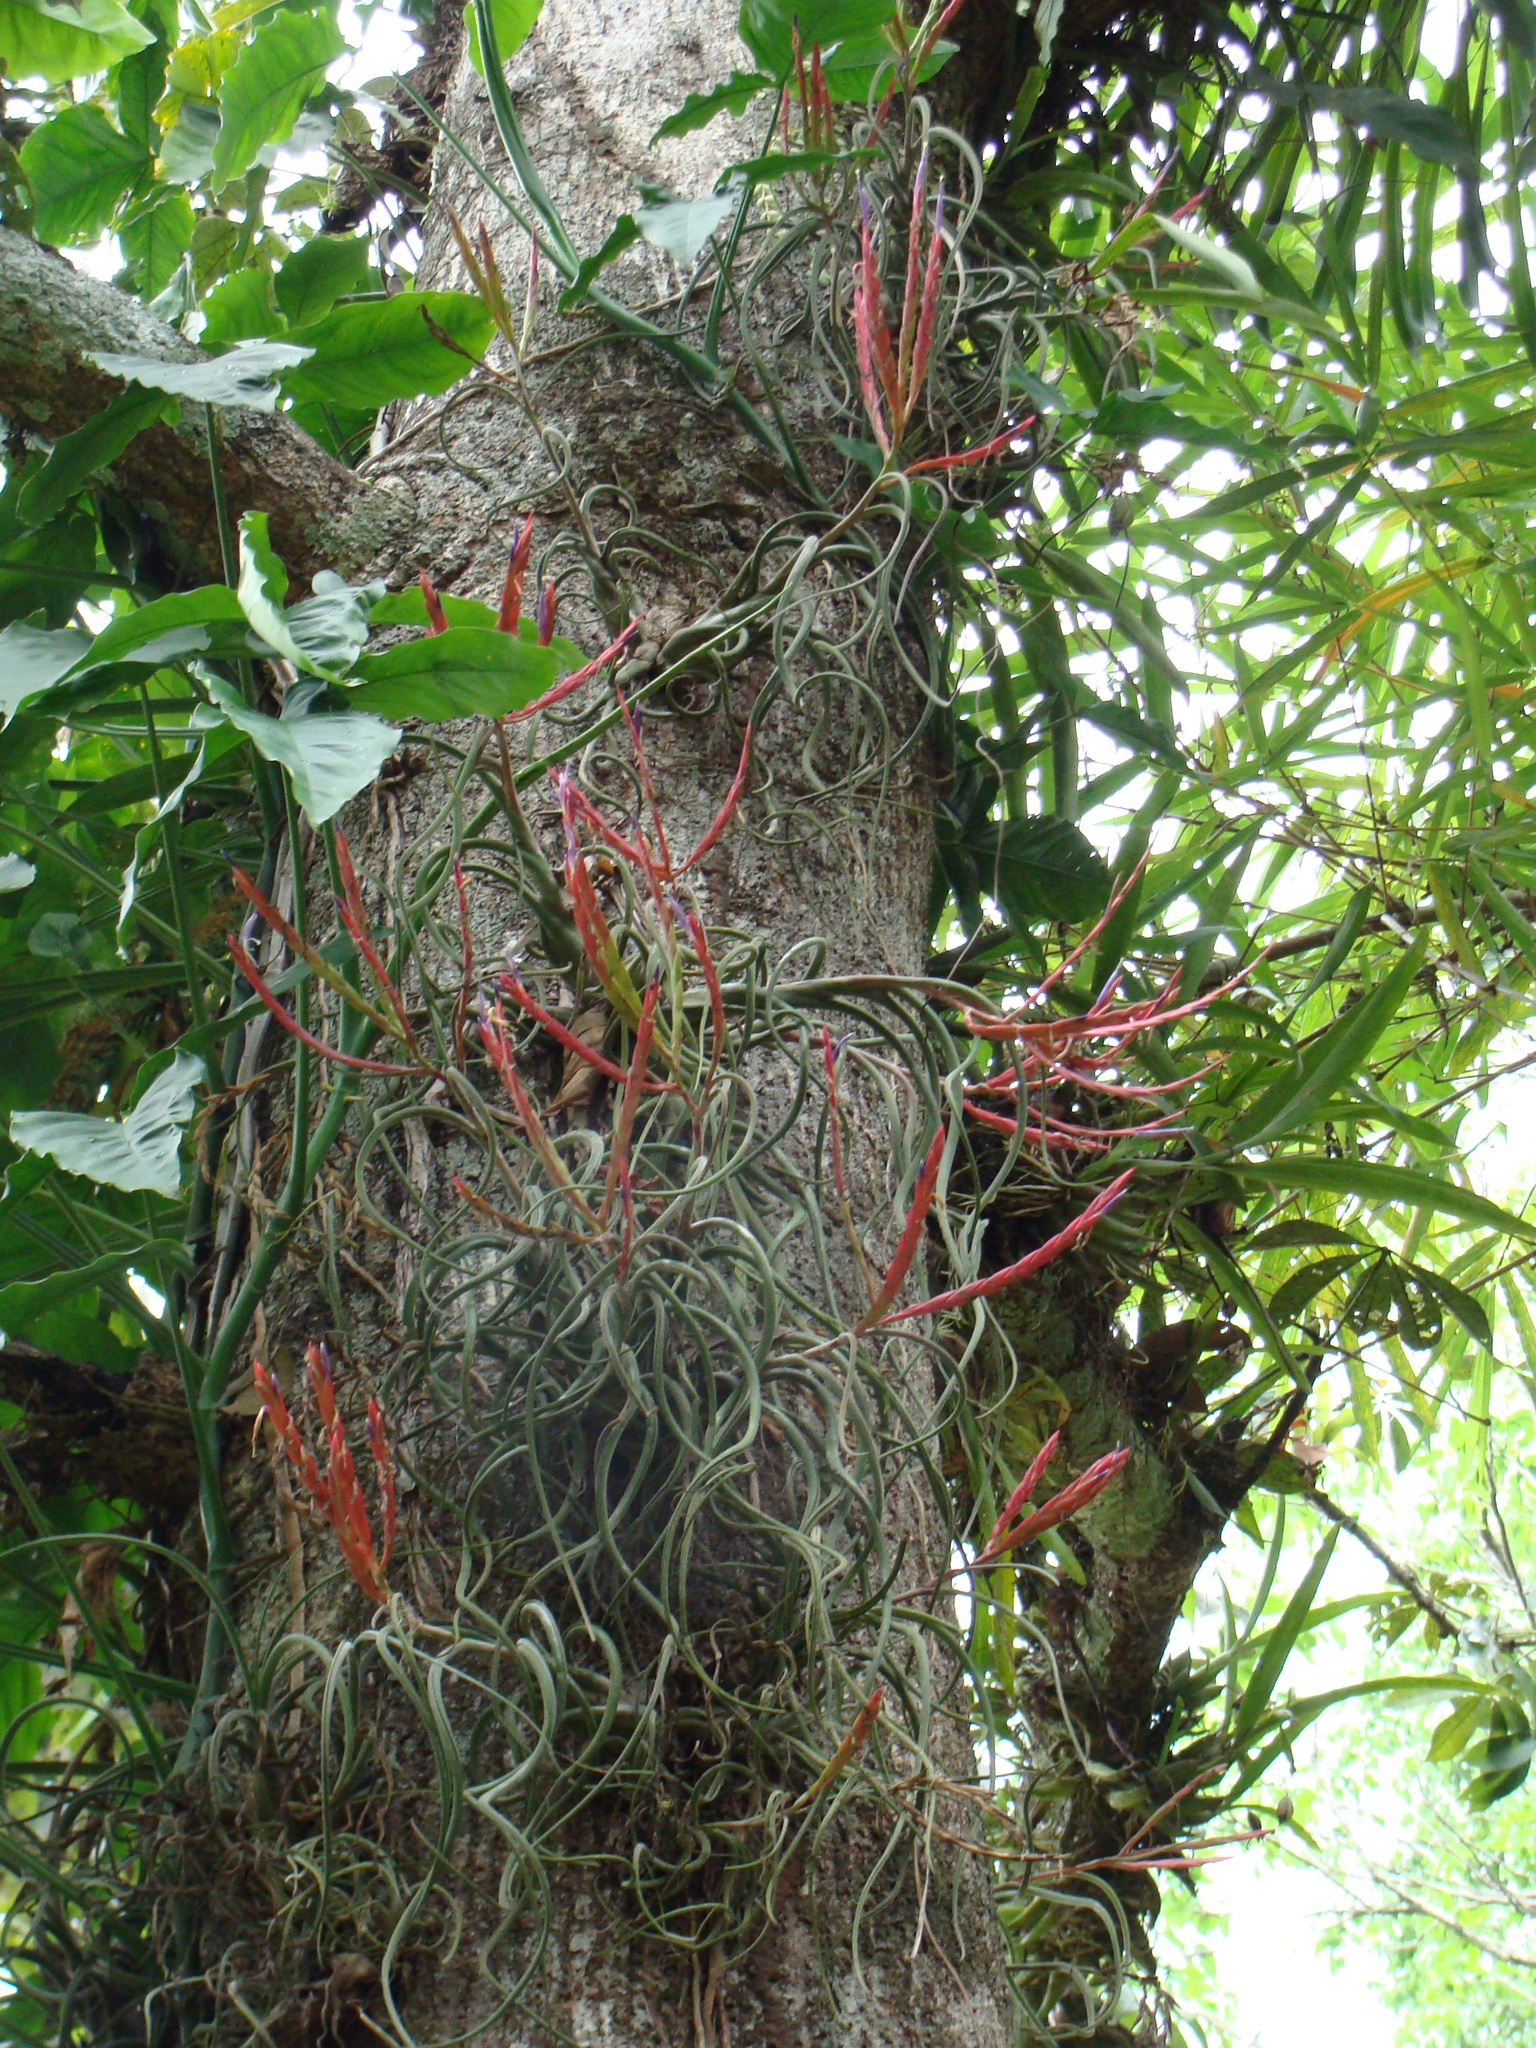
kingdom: Plantae
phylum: Tracheophyta
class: Liliopsida
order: Poales
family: Bromeliaceae
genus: Tillandsia
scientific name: Tillandsia caput-medusae
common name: Octopus plant
